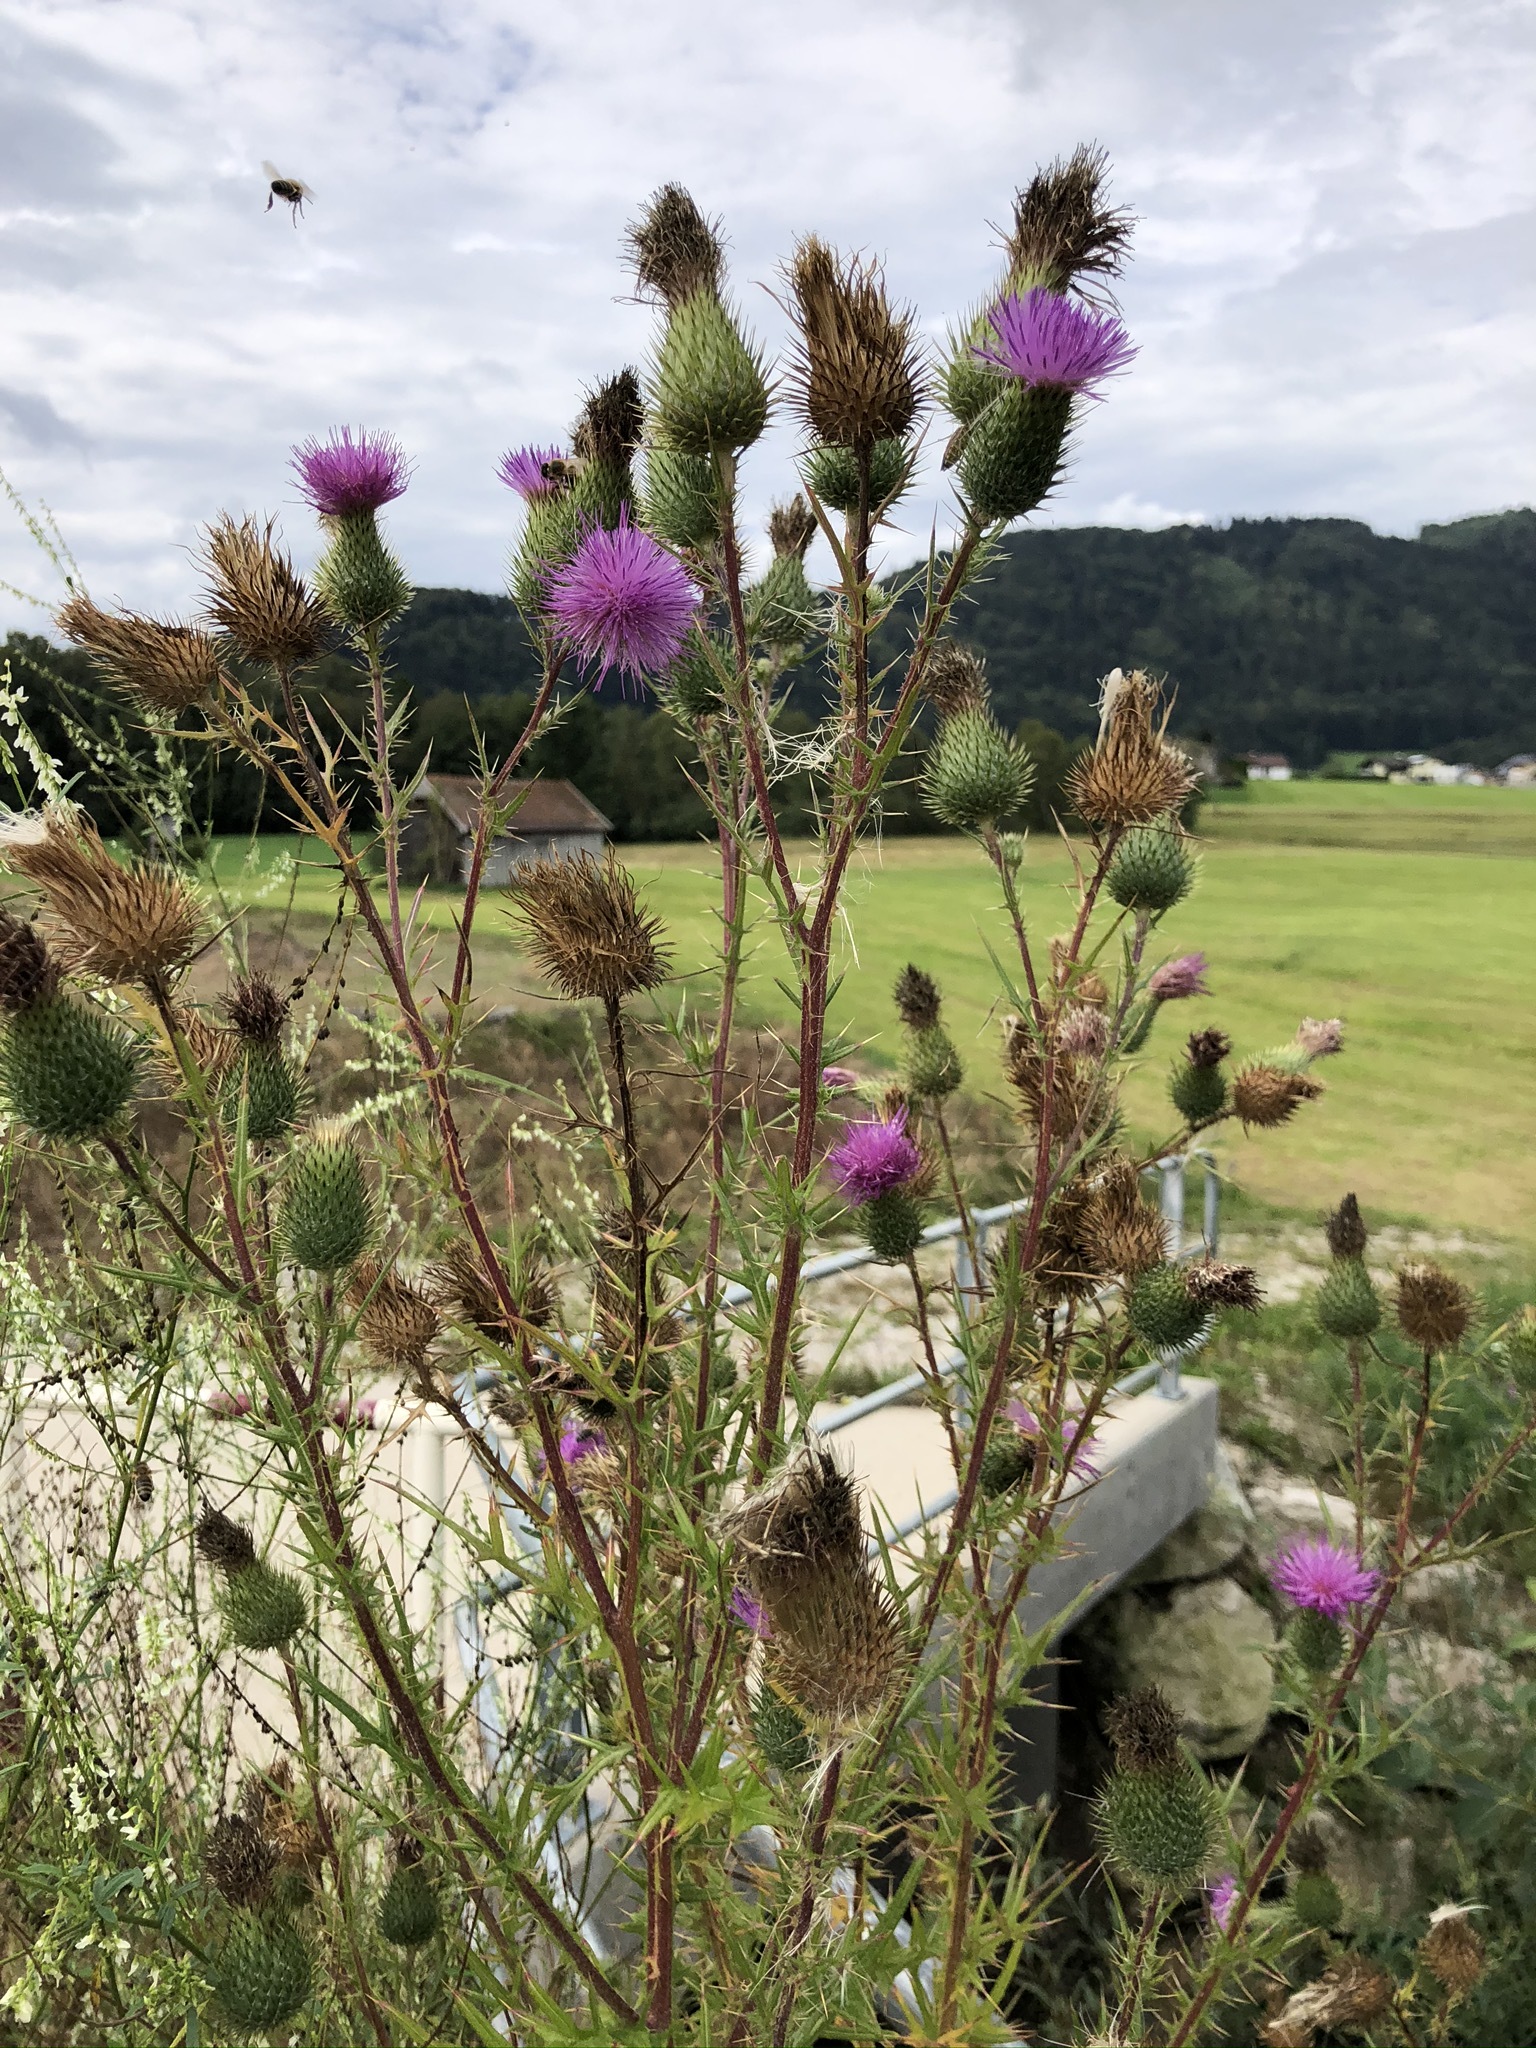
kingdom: Plantae
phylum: Tracheophyta
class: Magnoliopsida
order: Asterales
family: Asteraceae
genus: Cirsium
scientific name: Cirsium vulgare
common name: Bull thistle
